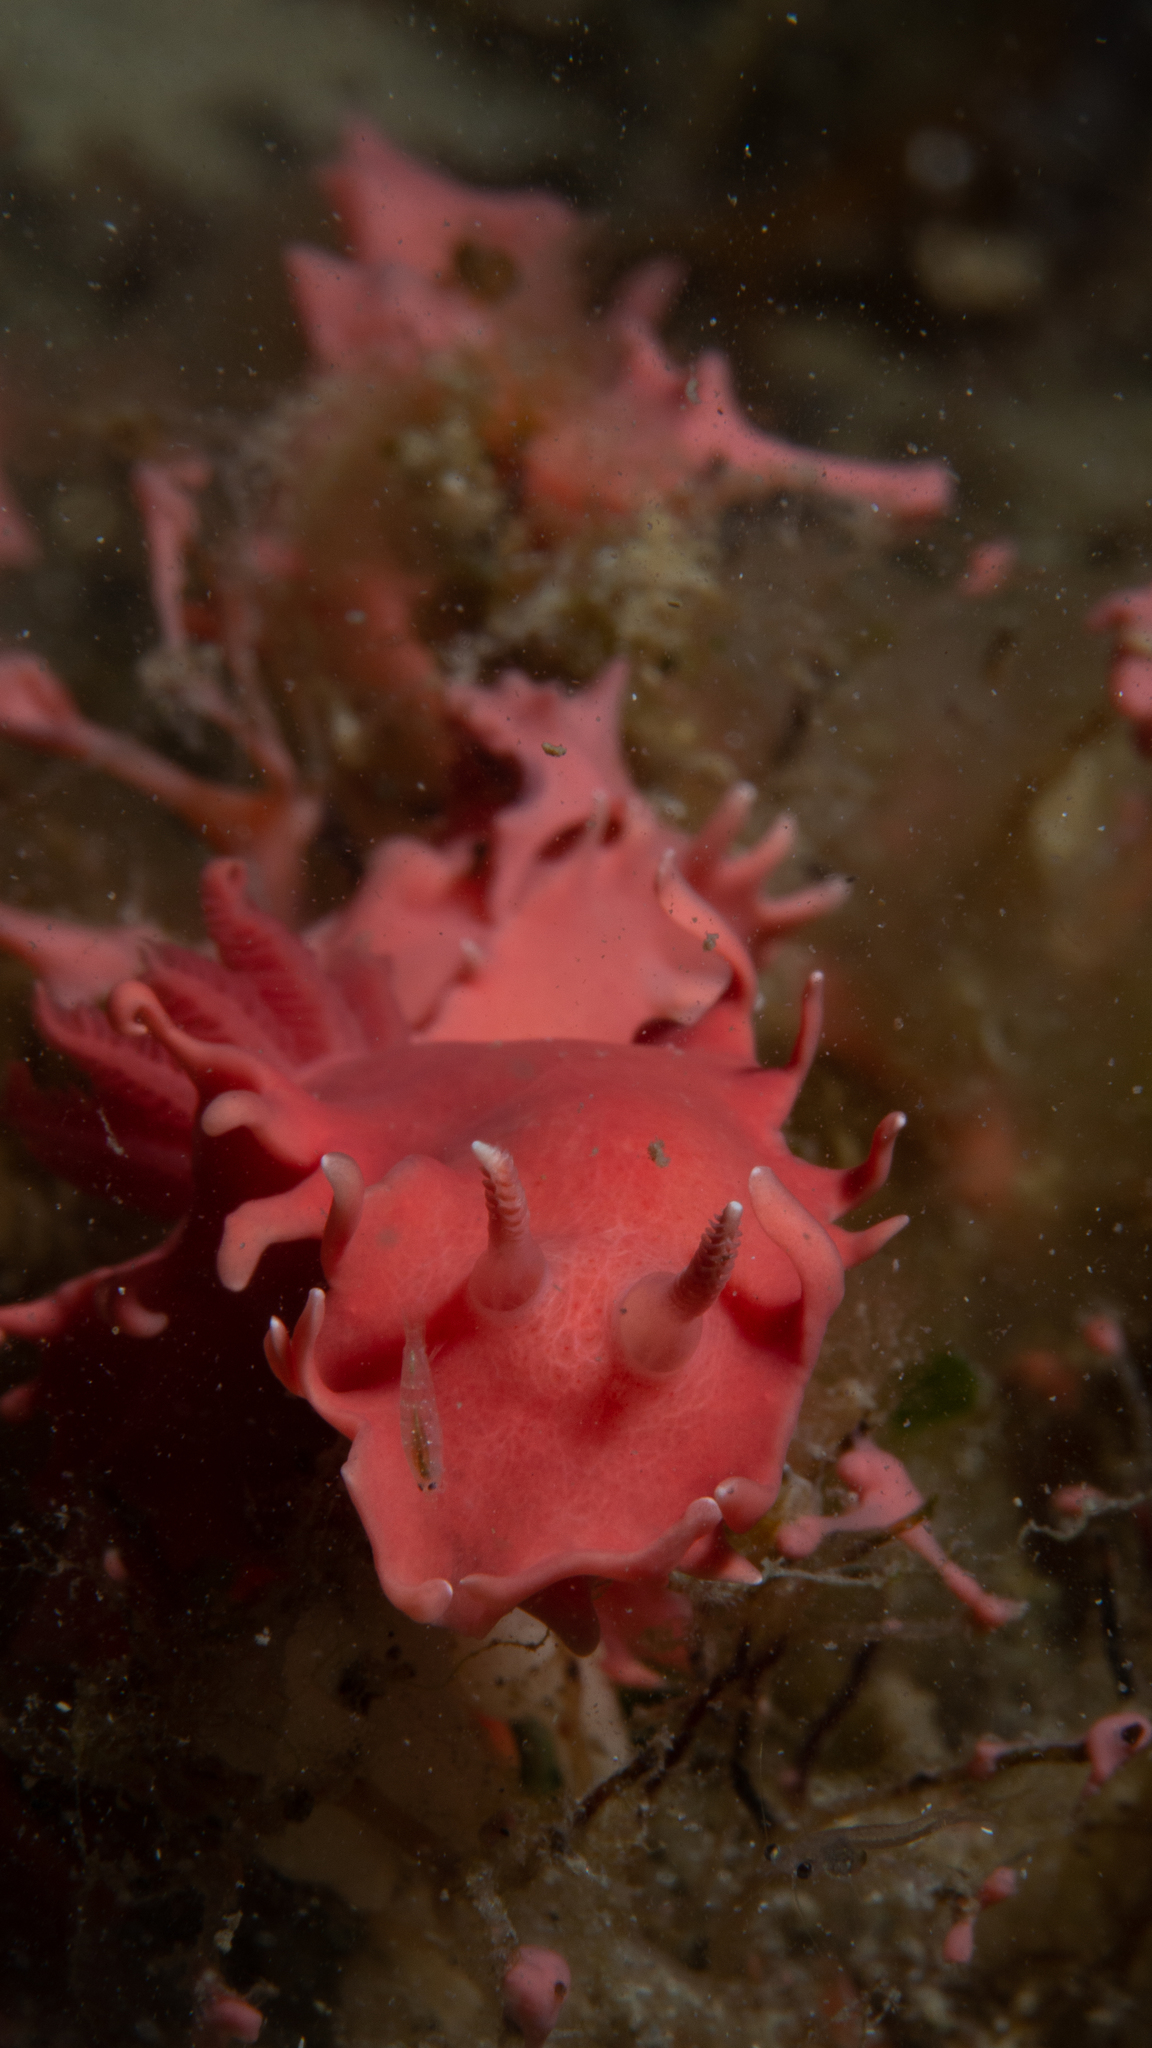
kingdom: Animalia
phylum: Mollusca
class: Gastropoda
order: Nudibranchia
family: Chromodorididae
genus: Verconia
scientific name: Verconia verconis
